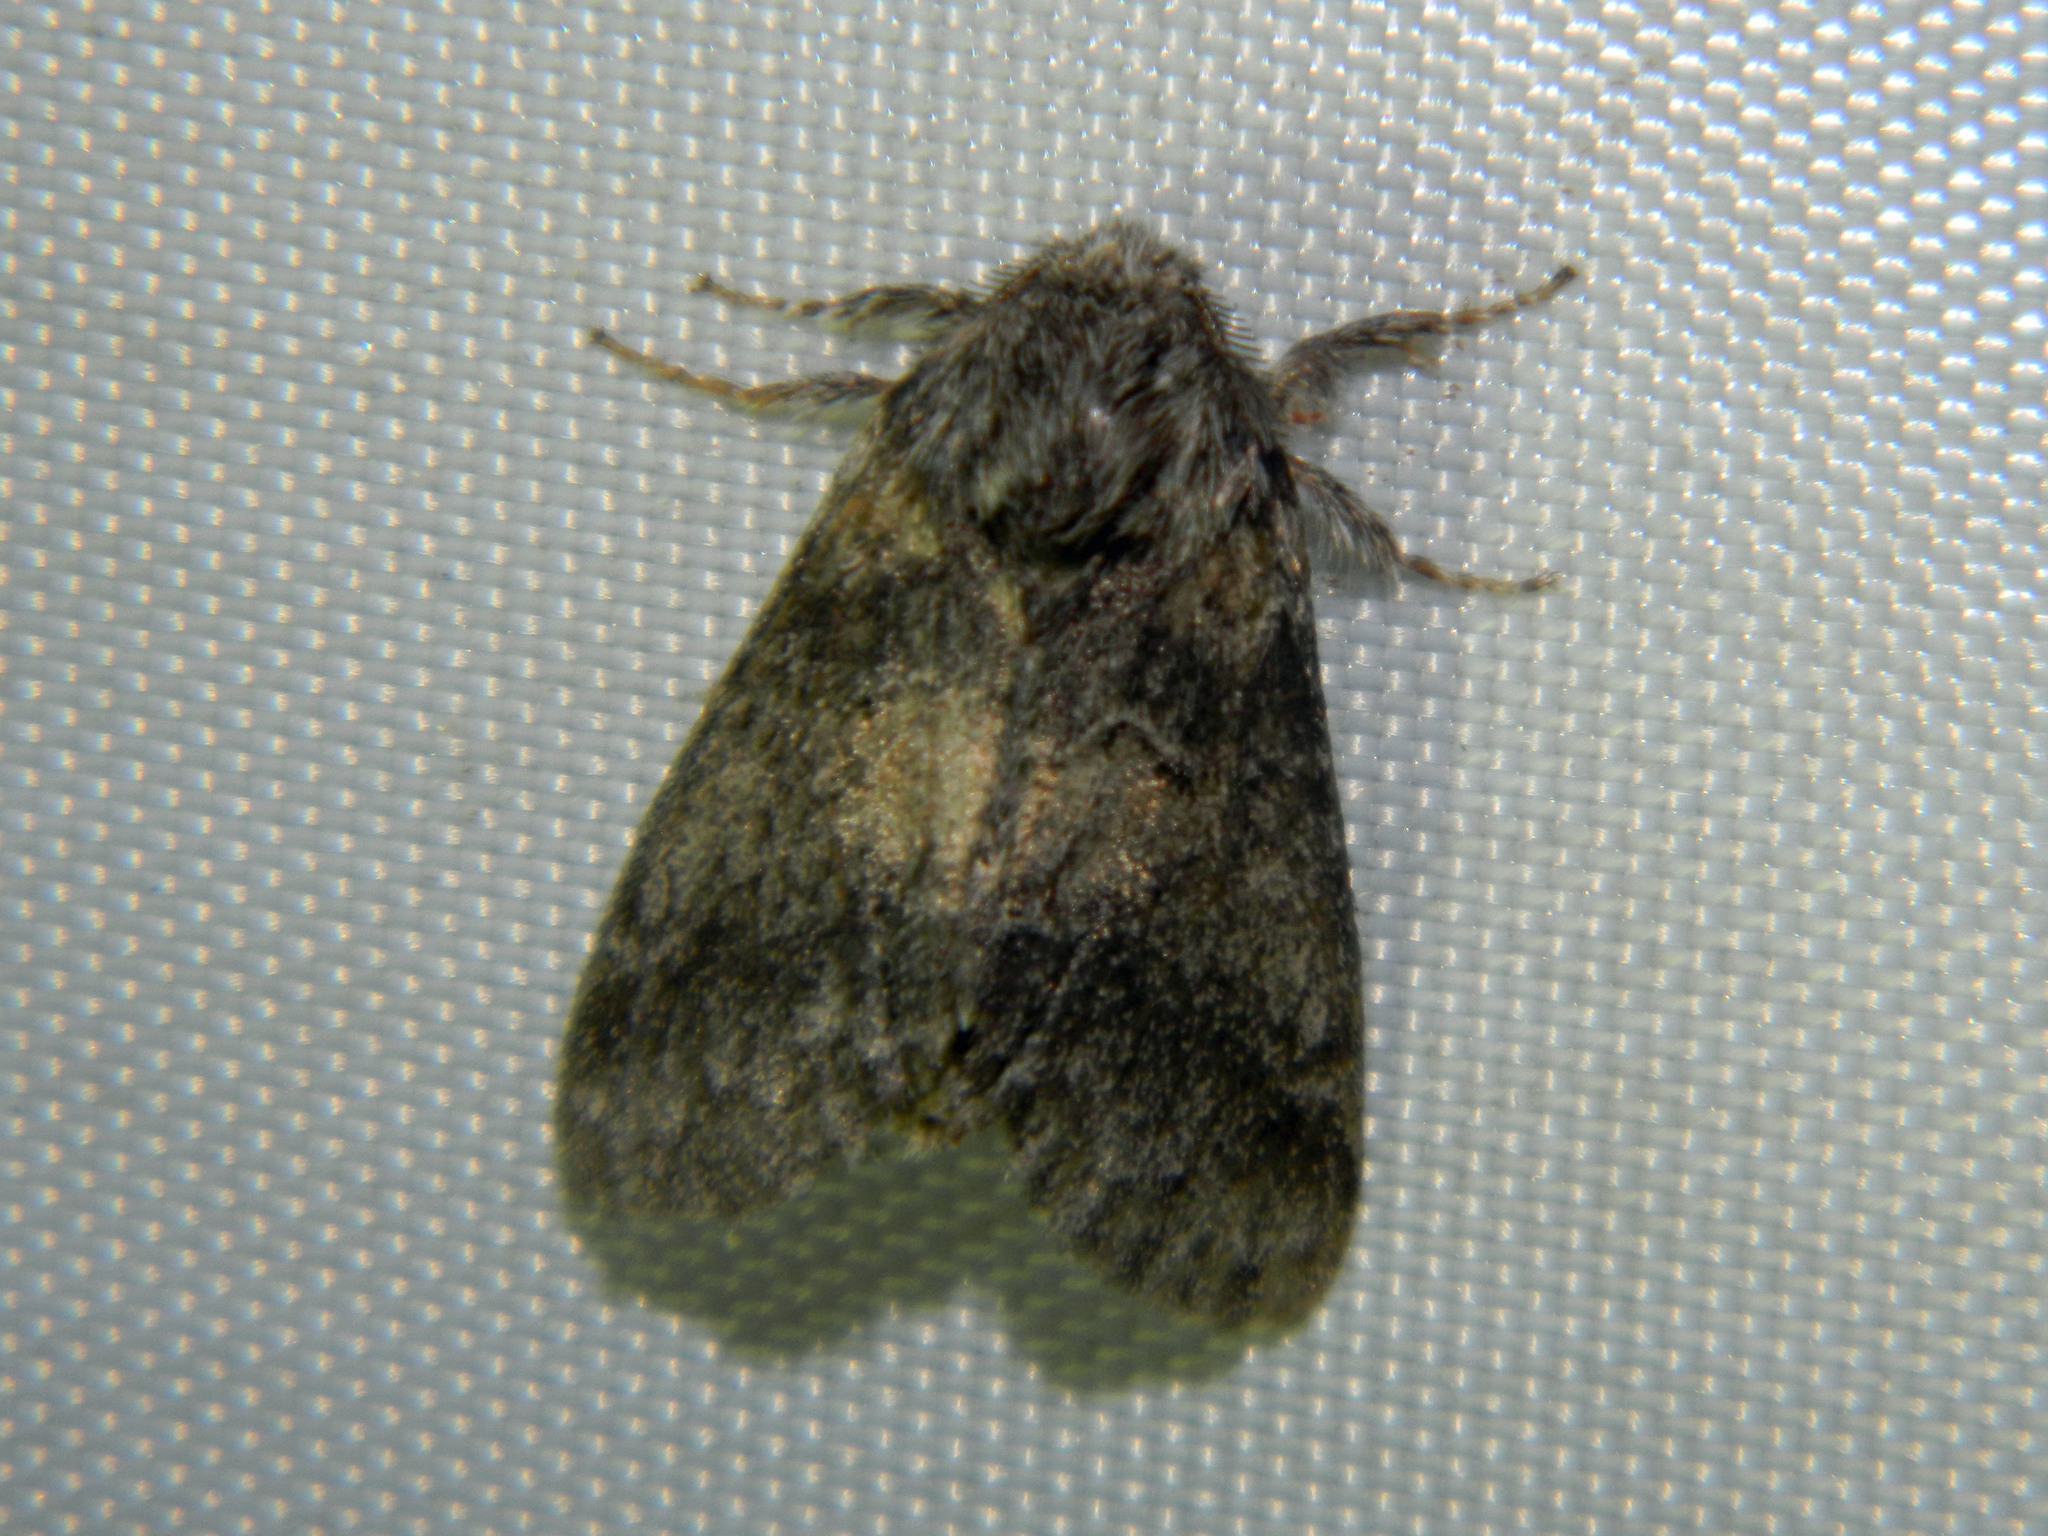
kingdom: Animalia
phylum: Arthropoda
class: Insecta
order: Lepidoptera
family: Notodontidae
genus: Gluphisia
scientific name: Gluphisia septentrionis
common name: Common gluphisia
